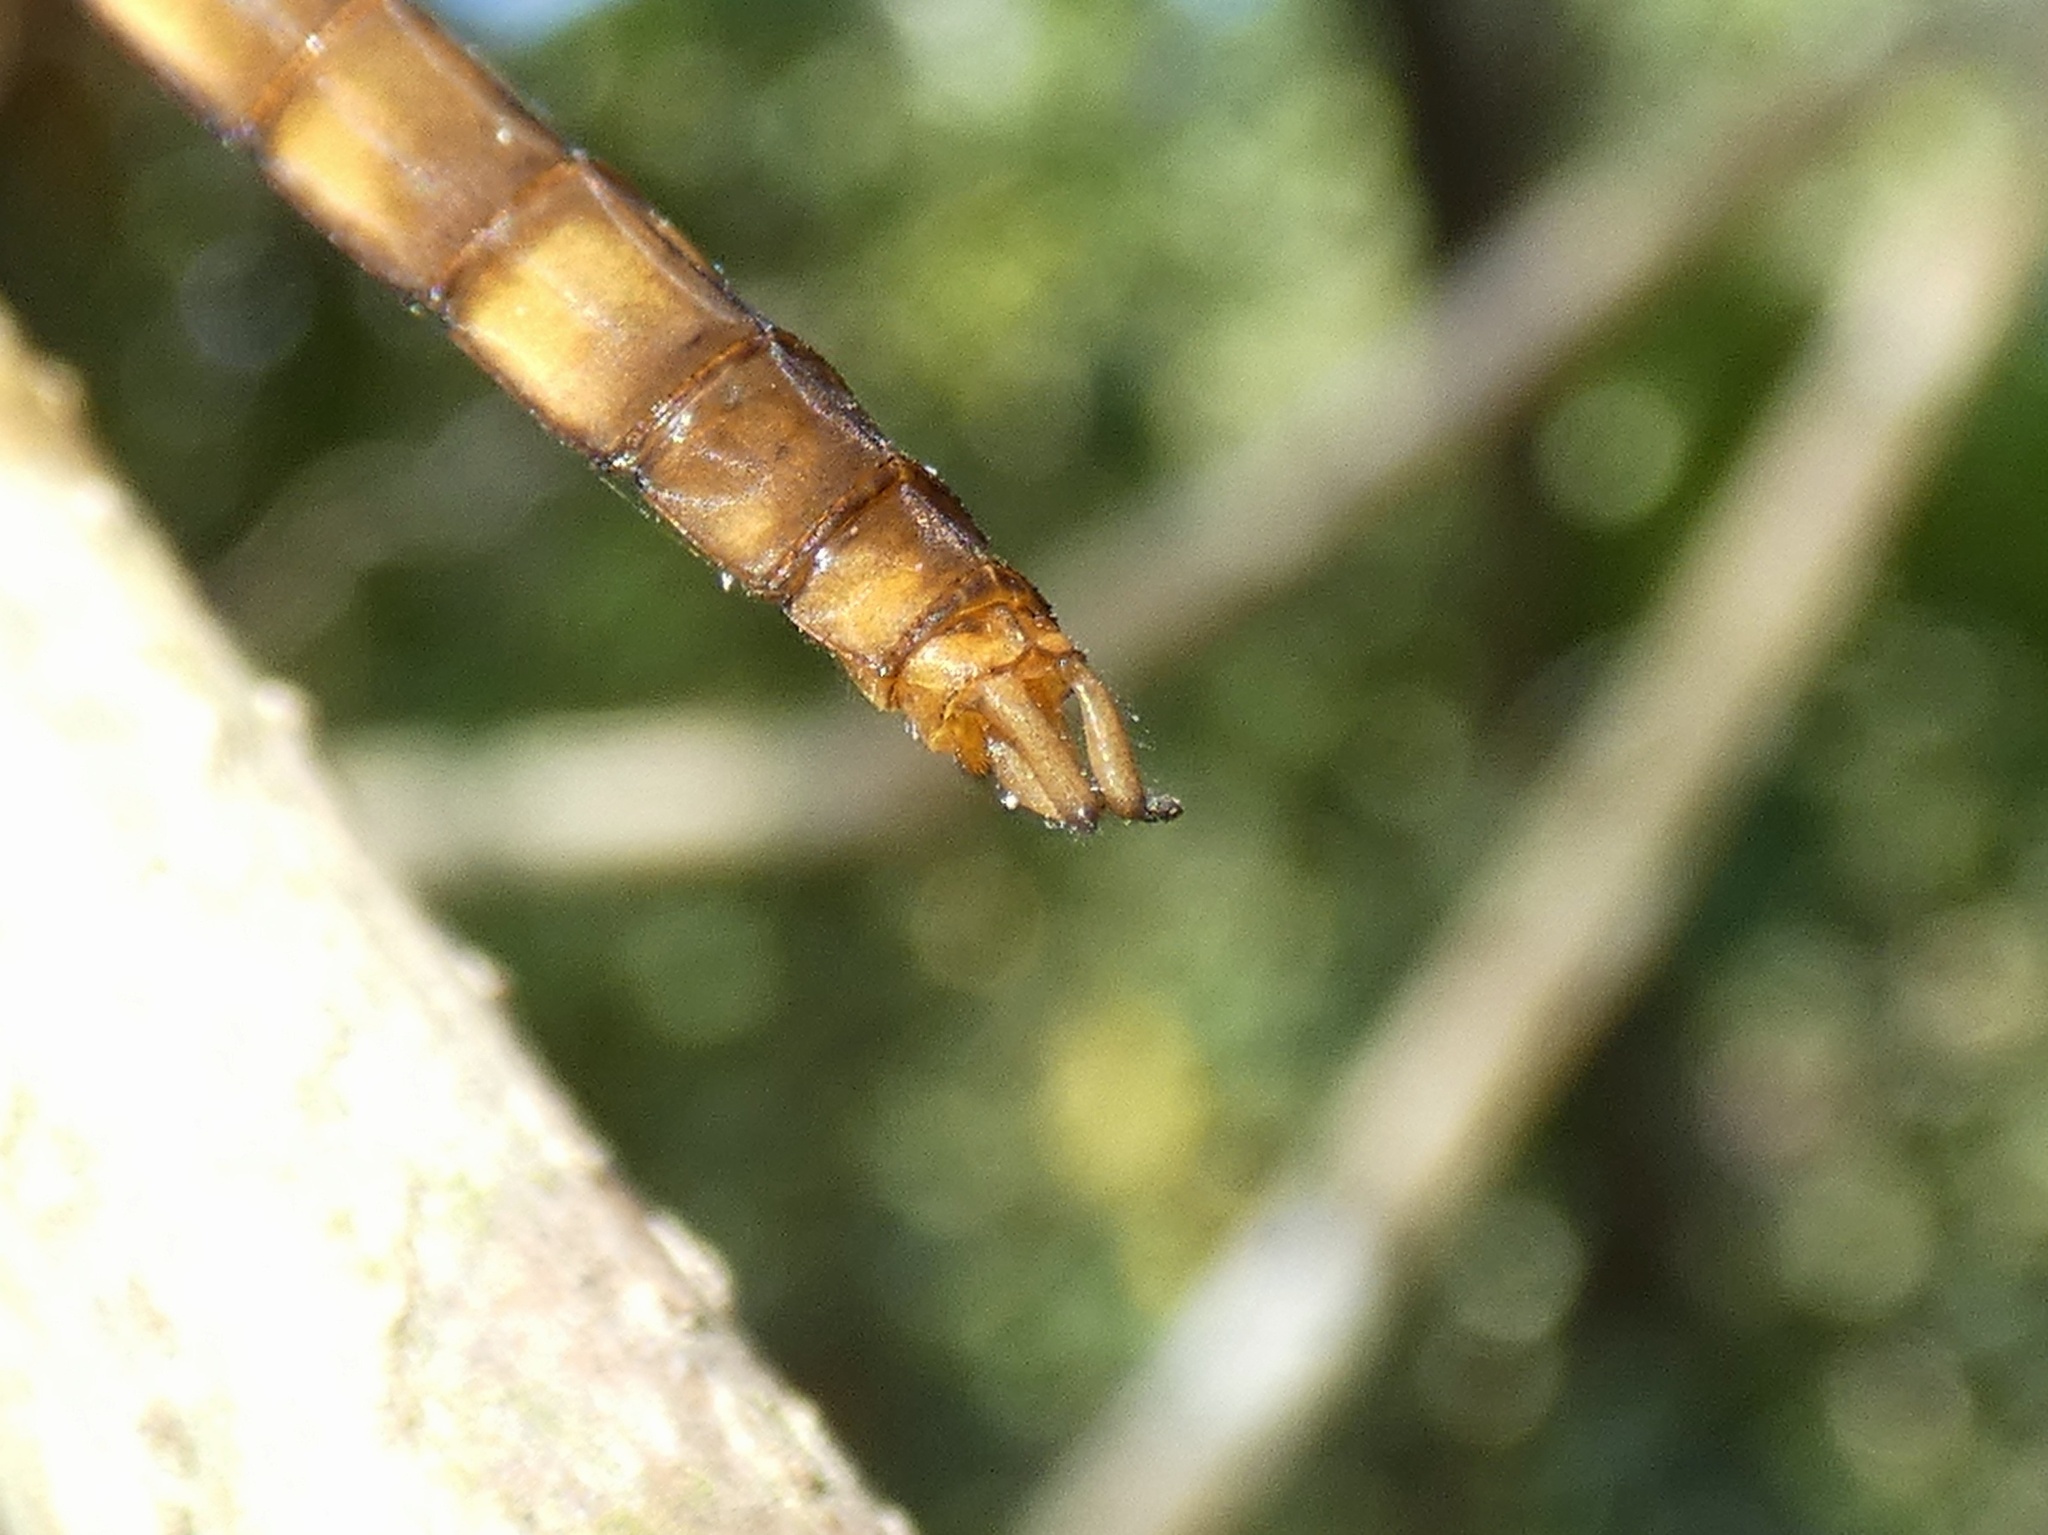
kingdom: Animalia
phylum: Arthropoda
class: Insecta
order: Odonata
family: Libellulidae
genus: Erythemis
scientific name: Erythemis attala
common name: Black pondhawk
